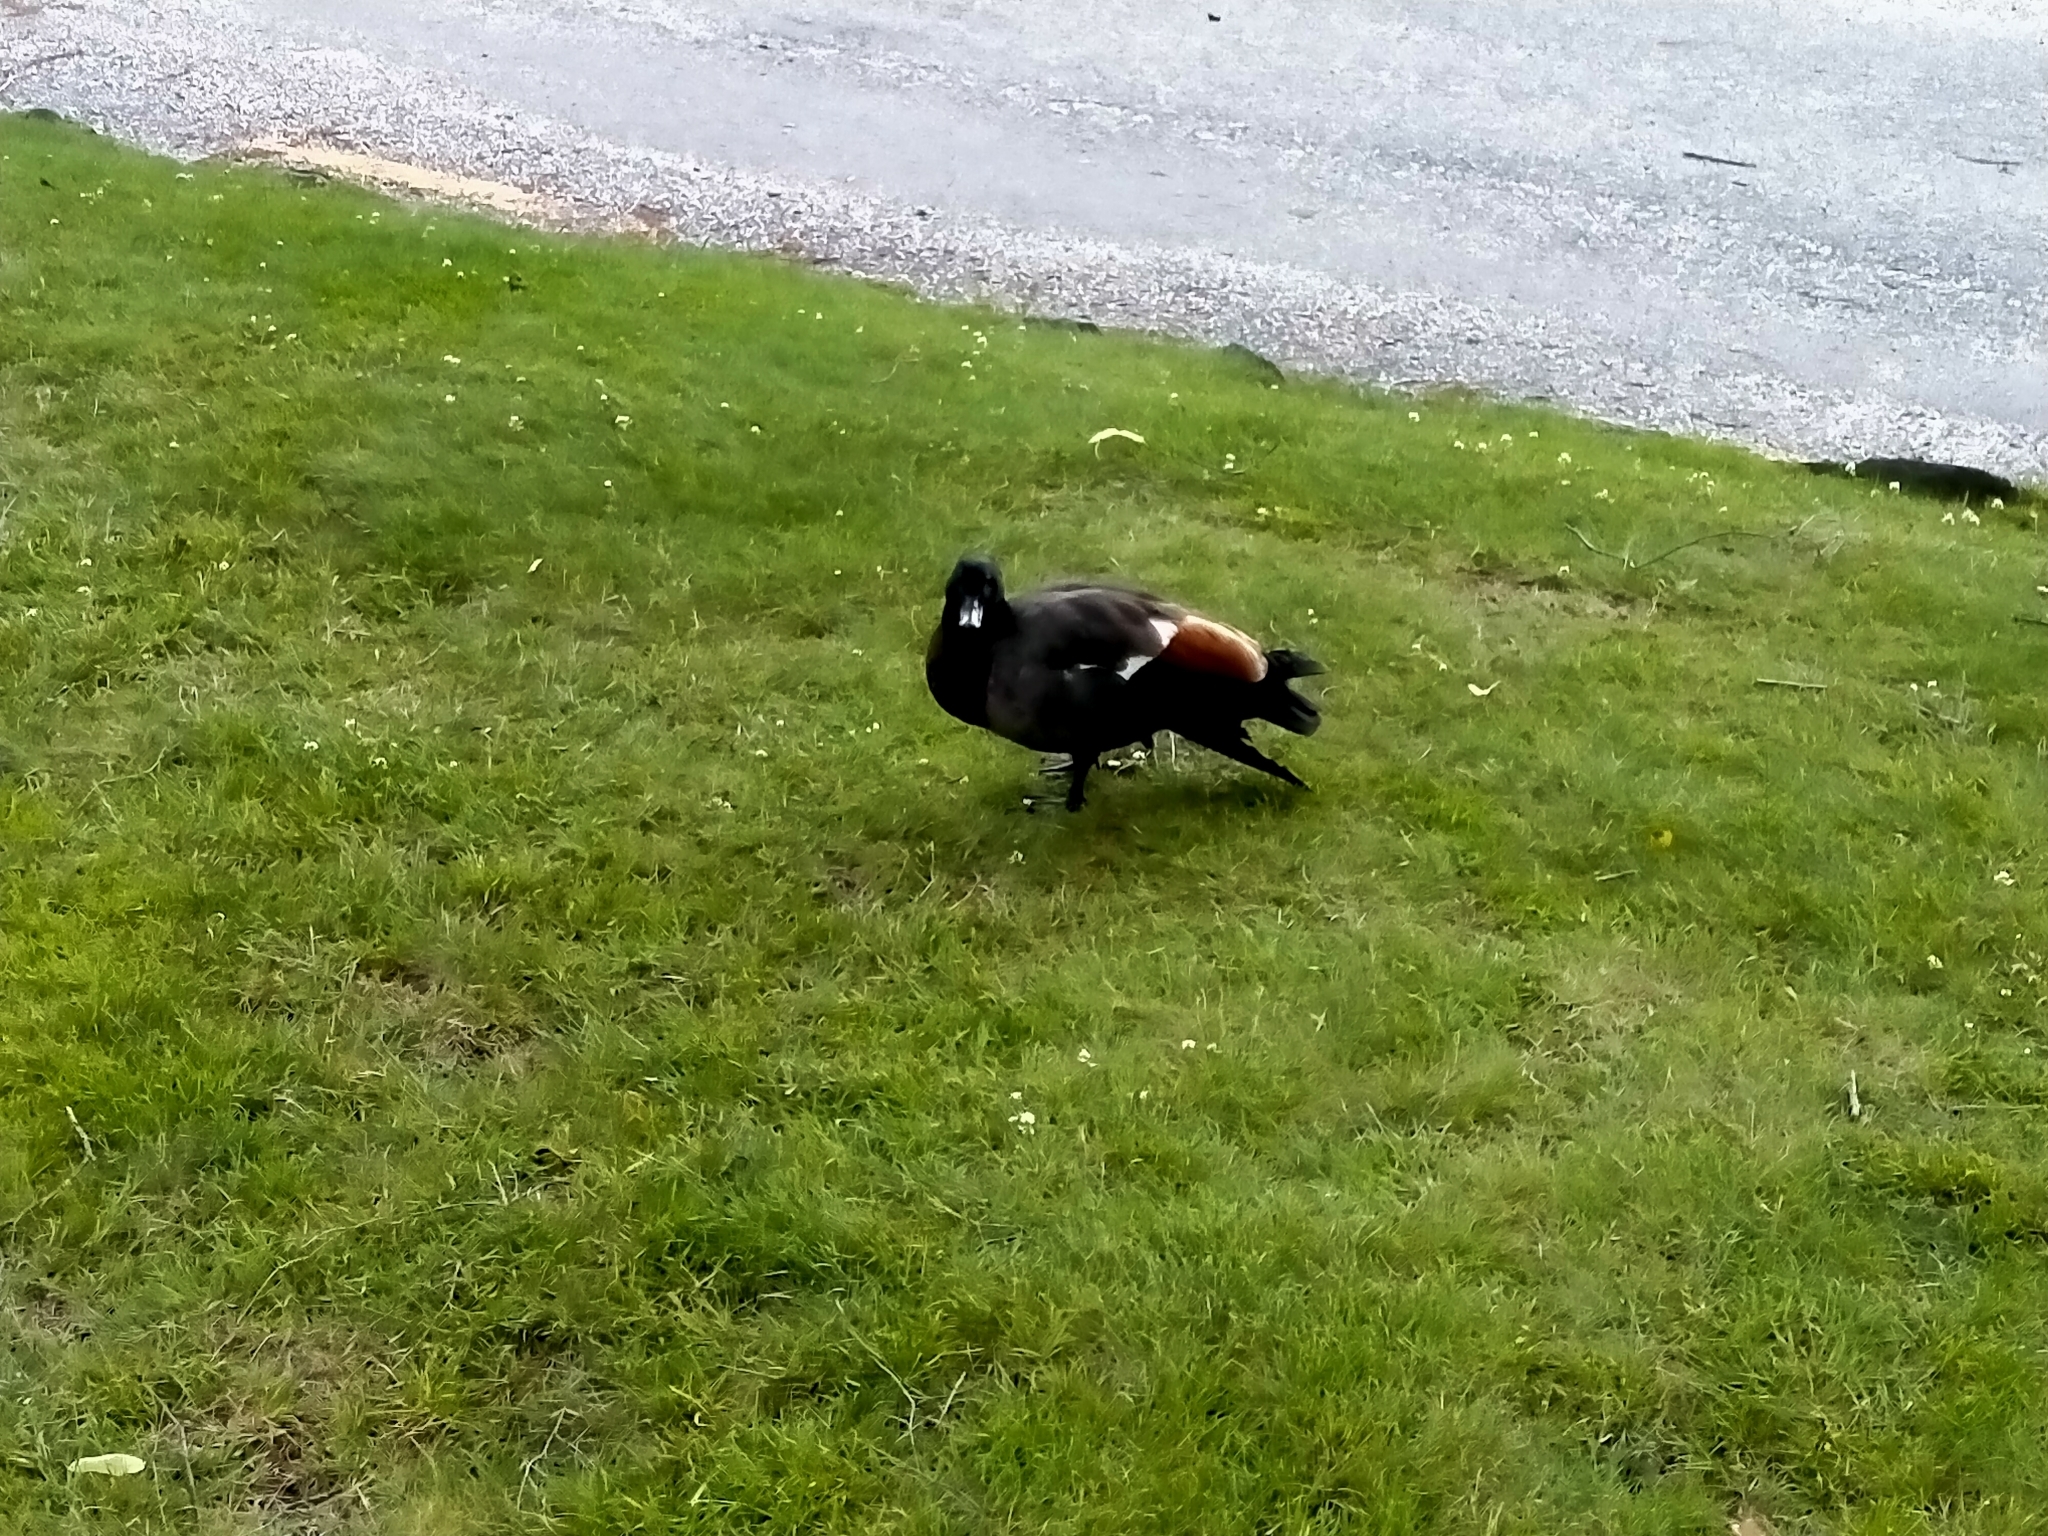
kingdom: Animalia
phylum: Chordata
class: Aves
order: Anseriformes
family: Anatidae
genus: Tadorna
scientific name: Tadorna variegata
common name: Paradise shelduck
